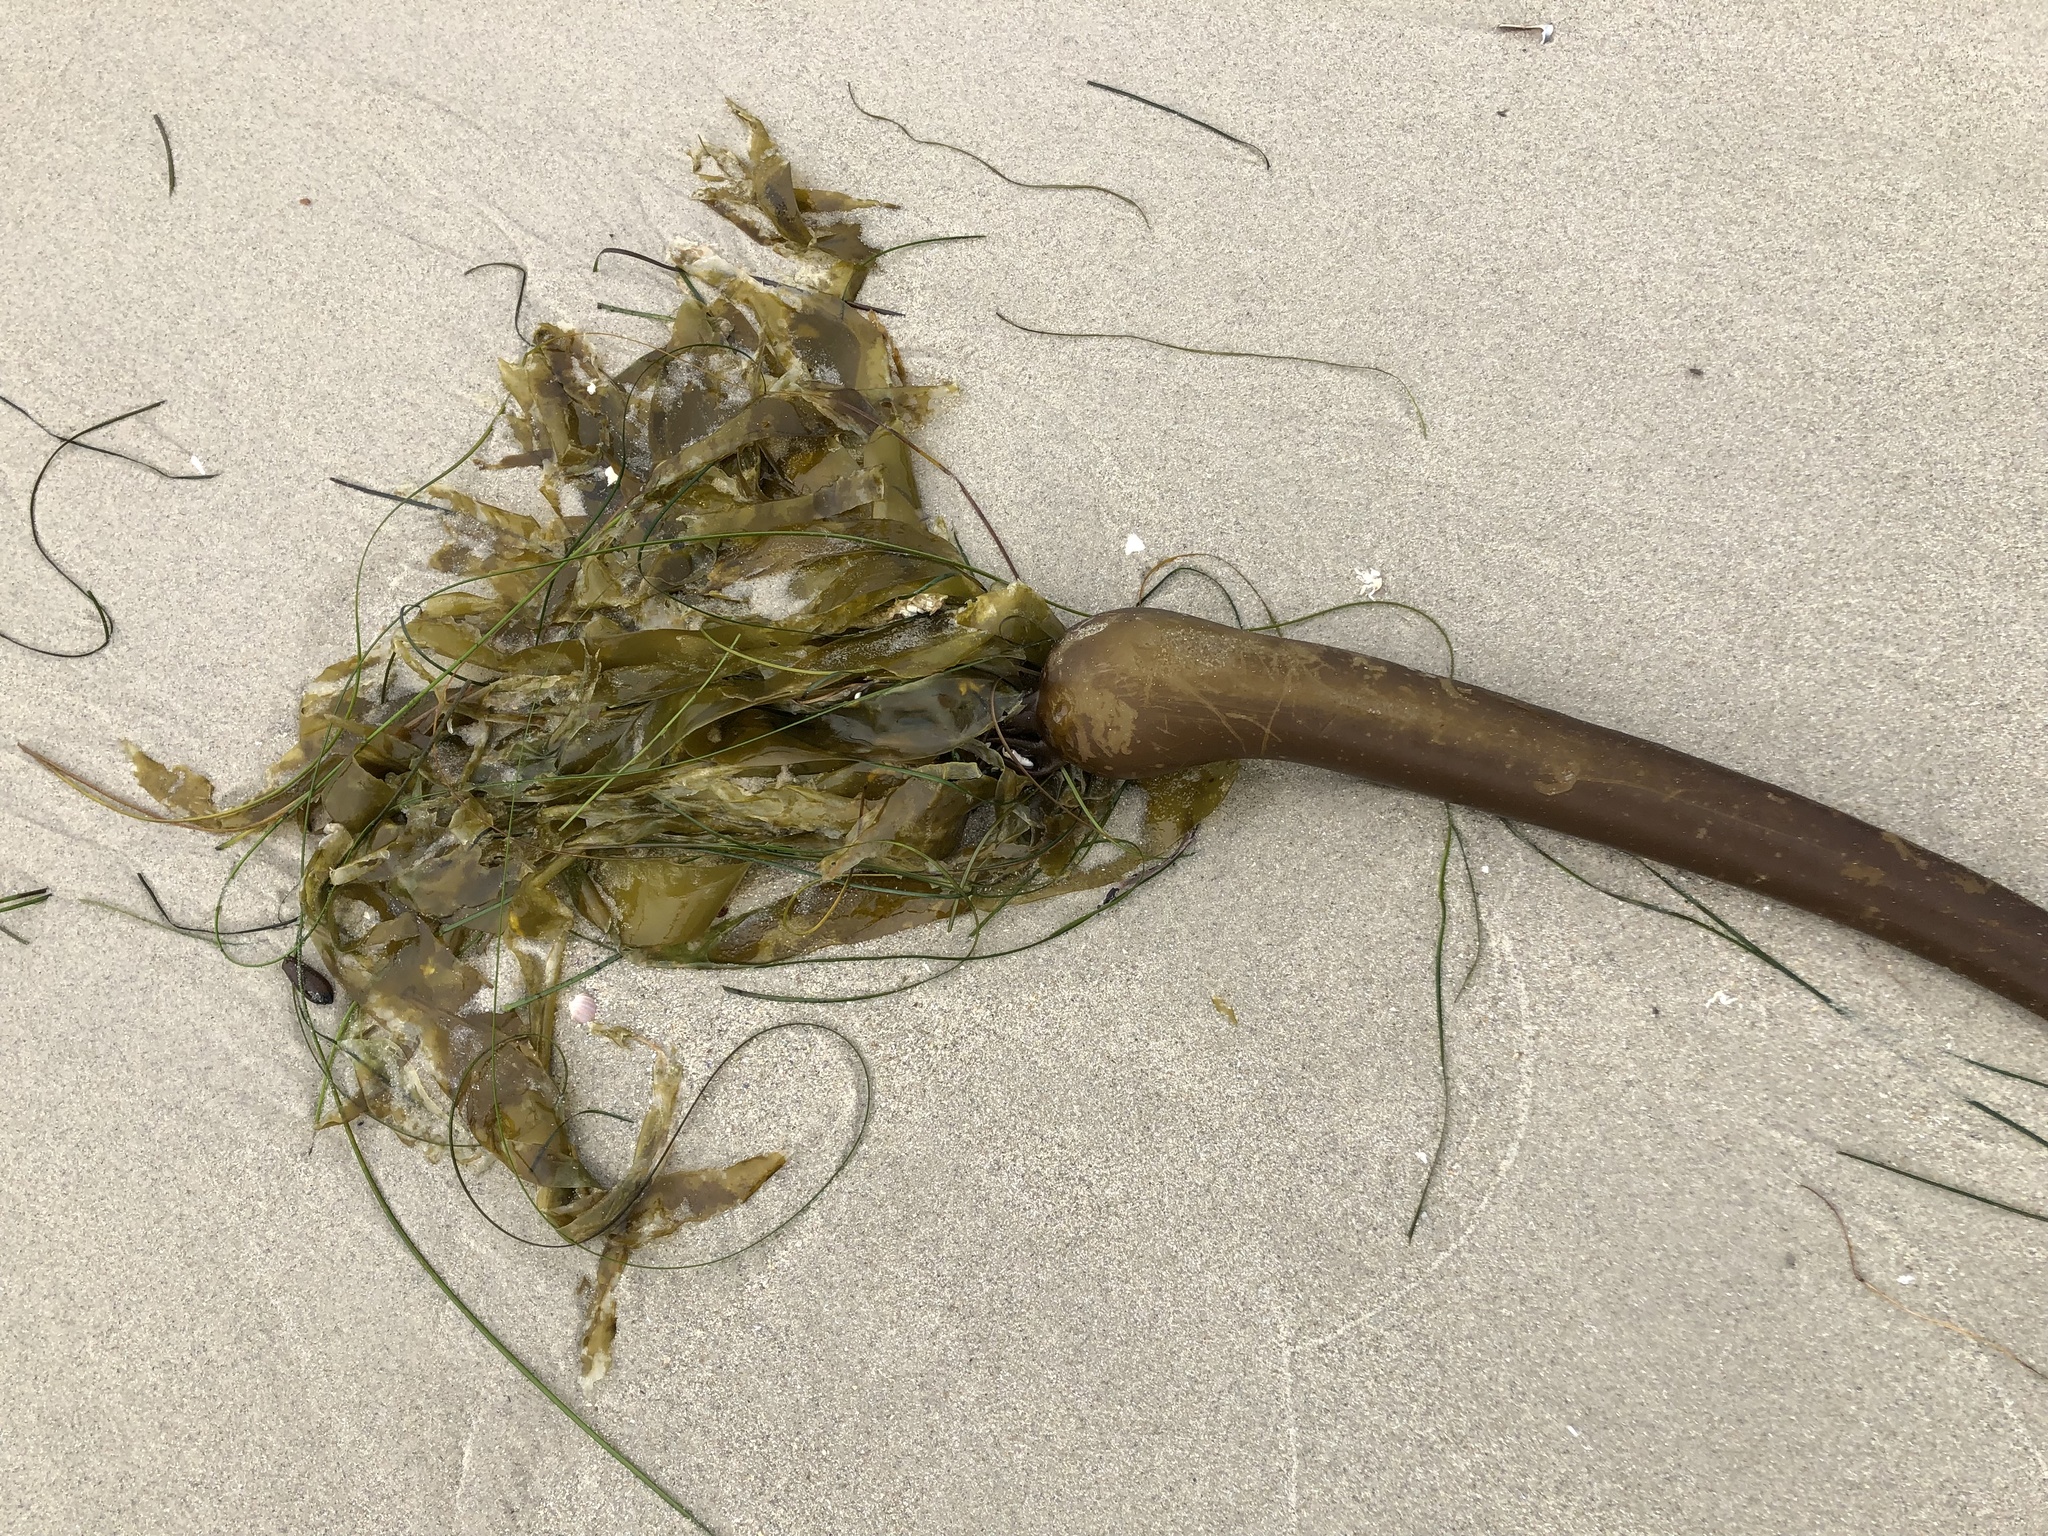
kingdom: Chromista
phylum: Ochrophyta
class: Phaeophyceae
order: Laminariales
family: Laminariaceae
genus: Nereocystis
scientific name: Nereocystis luetkeana
